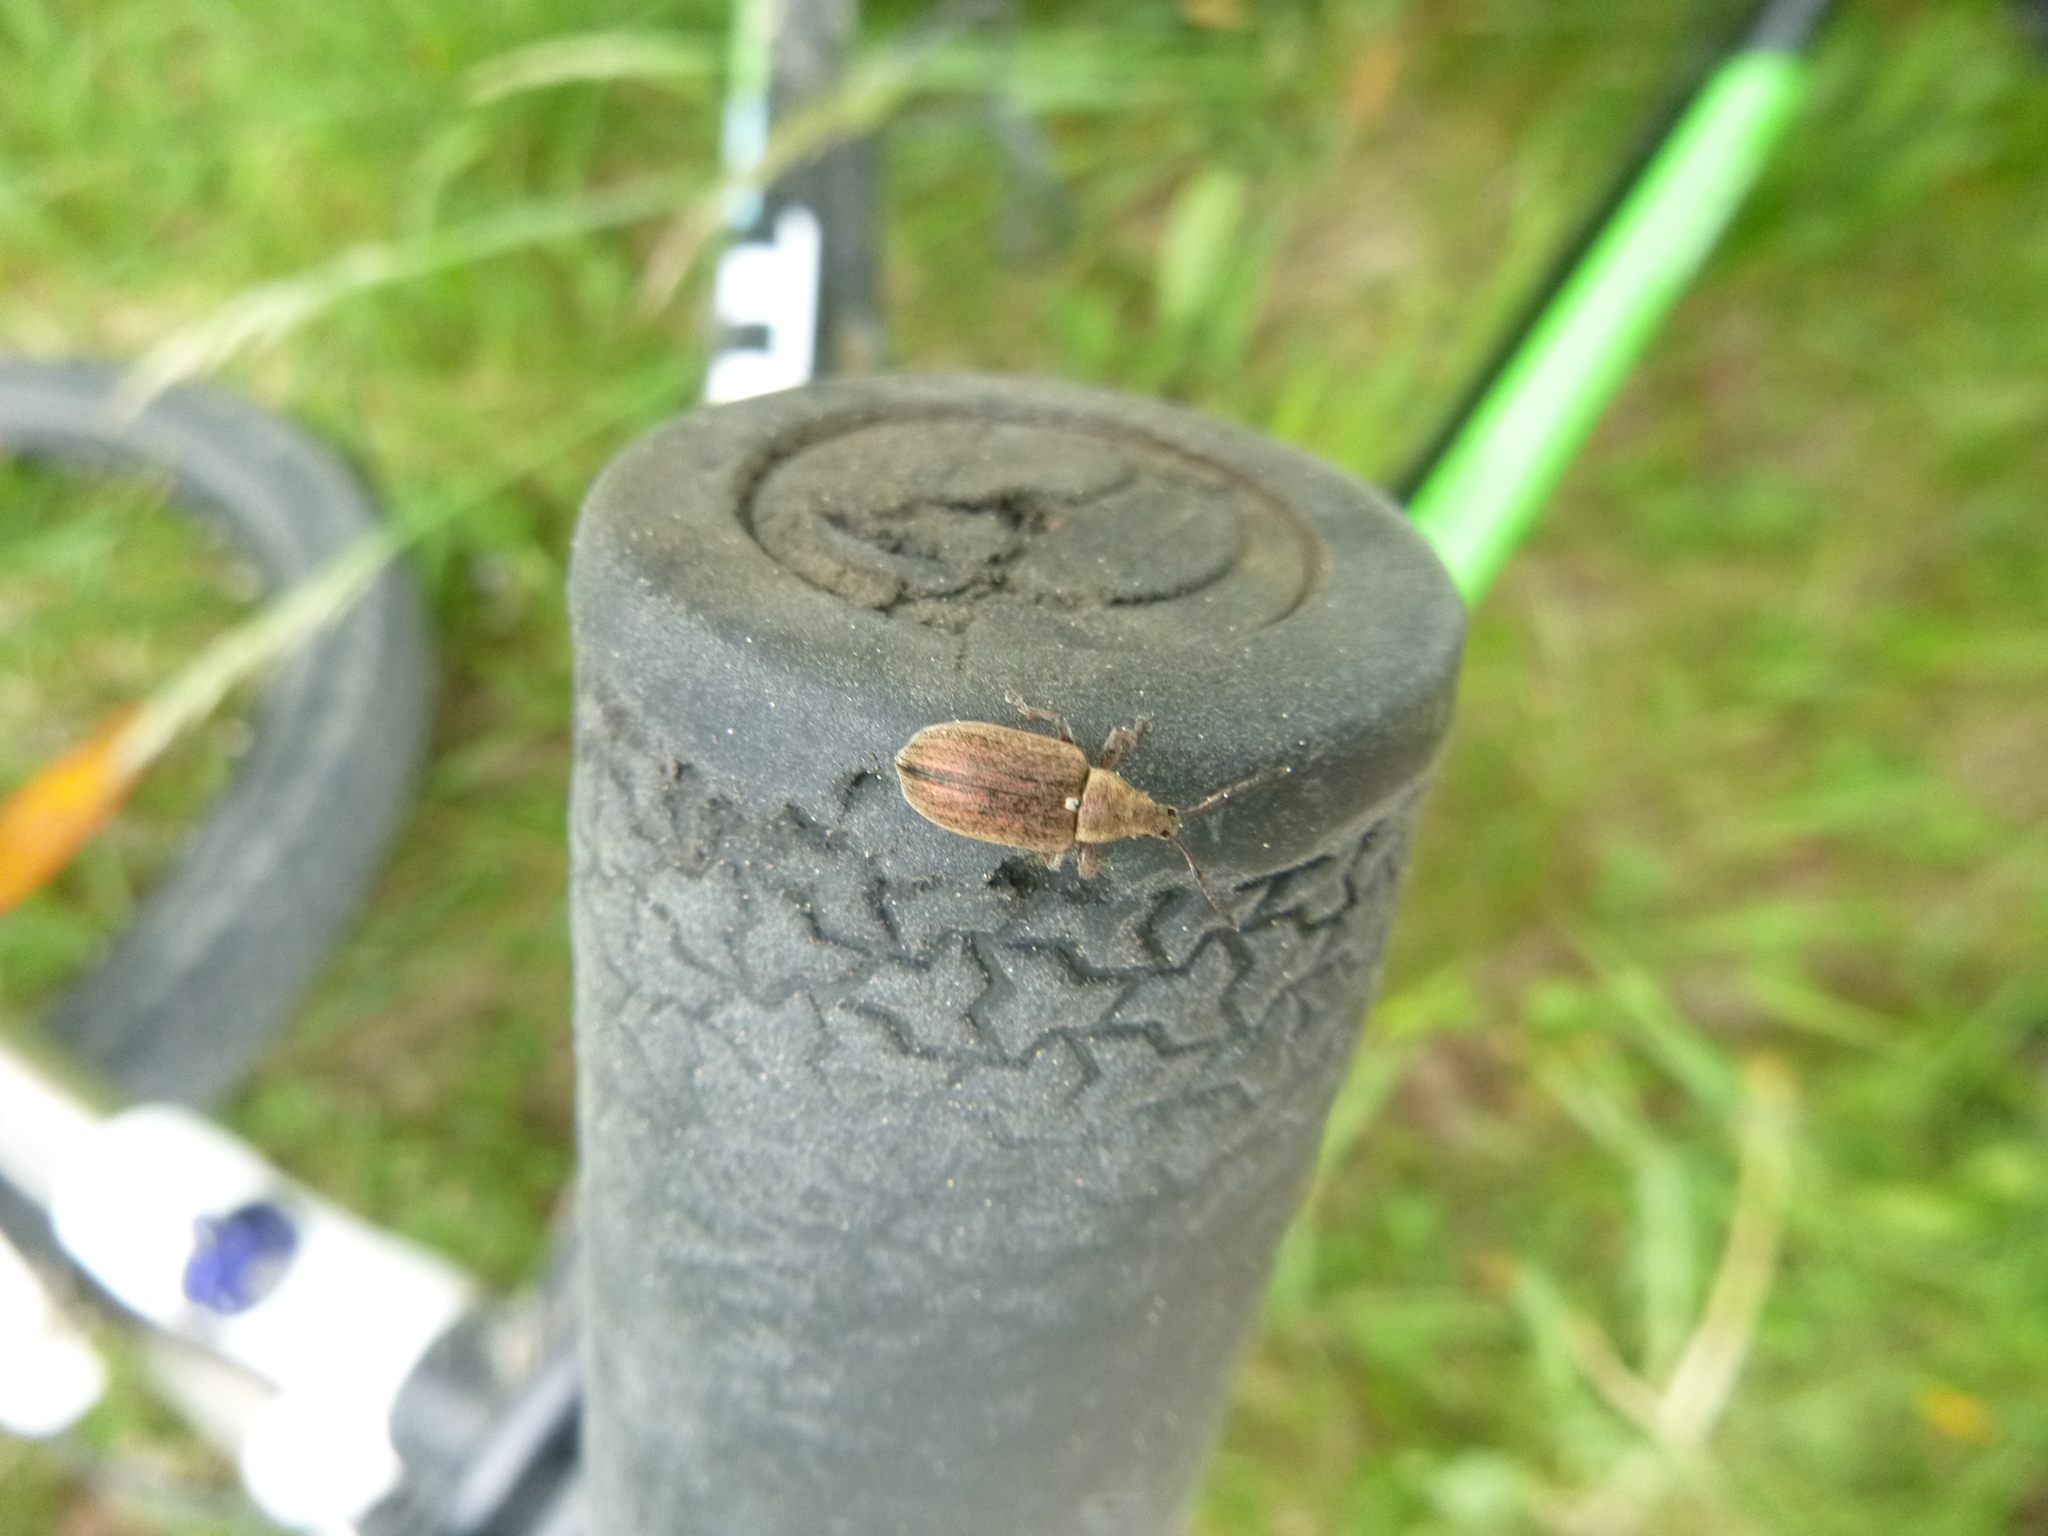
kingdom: Animalia
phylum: Arthropoda
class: Insecta
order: Coleoptera
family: Curculionidae
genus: Phyllobius
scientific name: Phyllobius pyri
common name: Common leaf weevil
